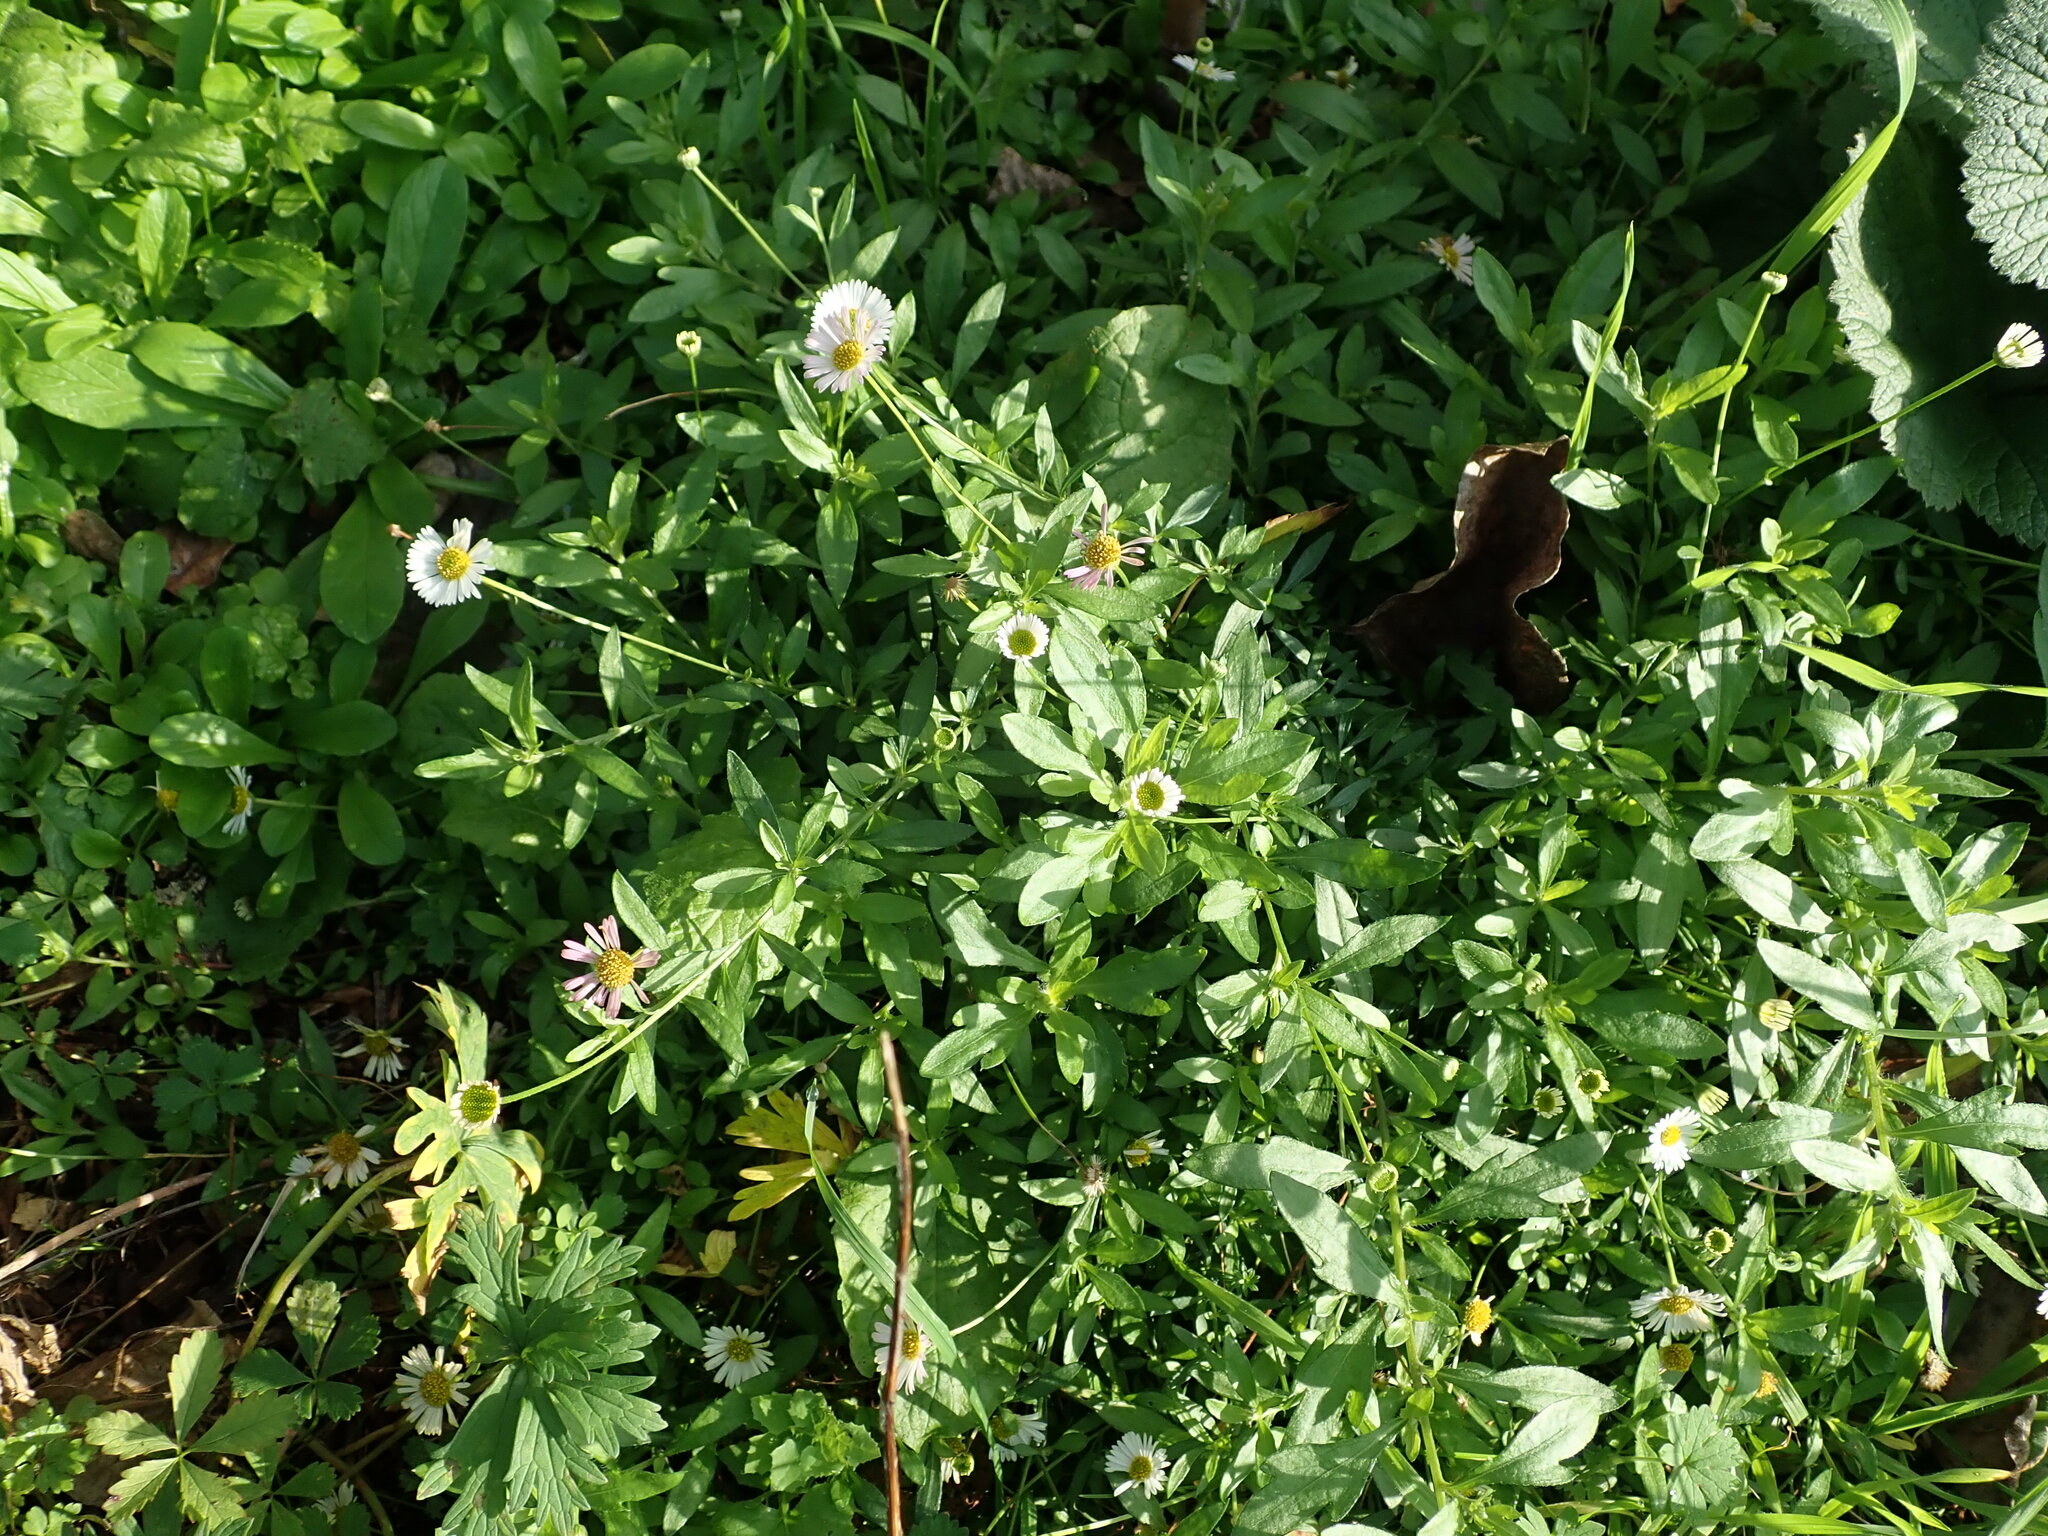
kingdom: Plantae
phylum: Tracheophyta
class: Magnoliopsida
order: Asterales
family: Asteraceae
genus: Erigeron
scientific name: Erigeron karvinskianus
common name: Mexican fleabane
